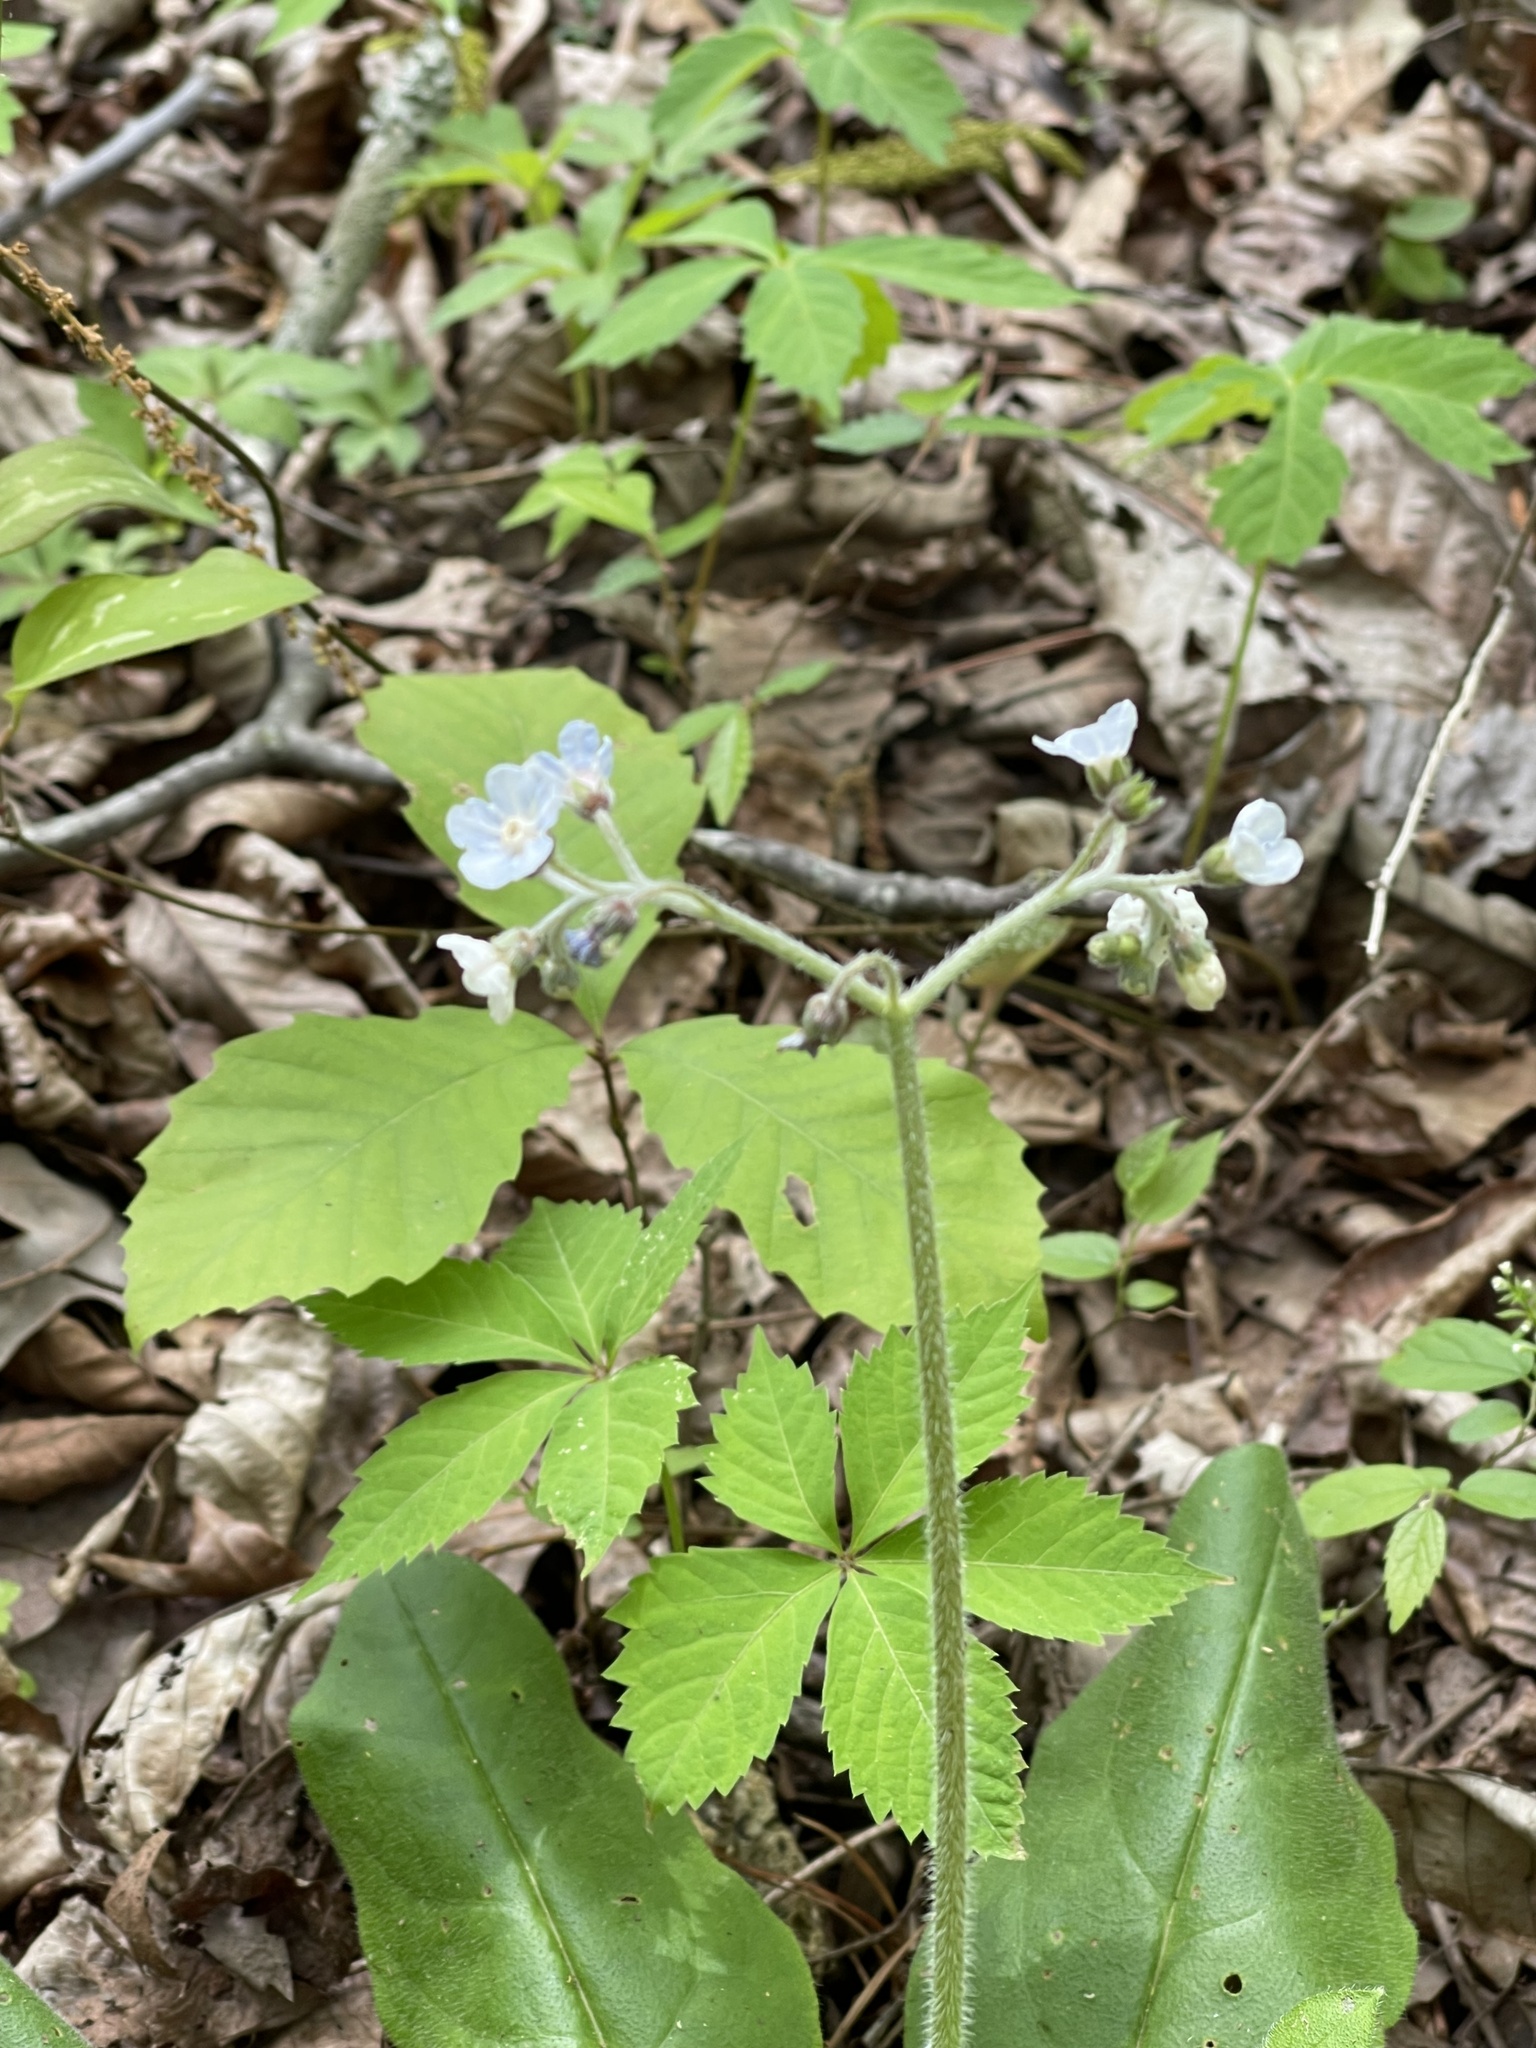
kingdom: Plantae
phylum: Tracheophyta
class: Magnoliopsida
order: Boraginales
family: Boraginaceae
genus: Andersonglossum
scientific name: Andersonglossum virginianum
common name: Wild comfrey
